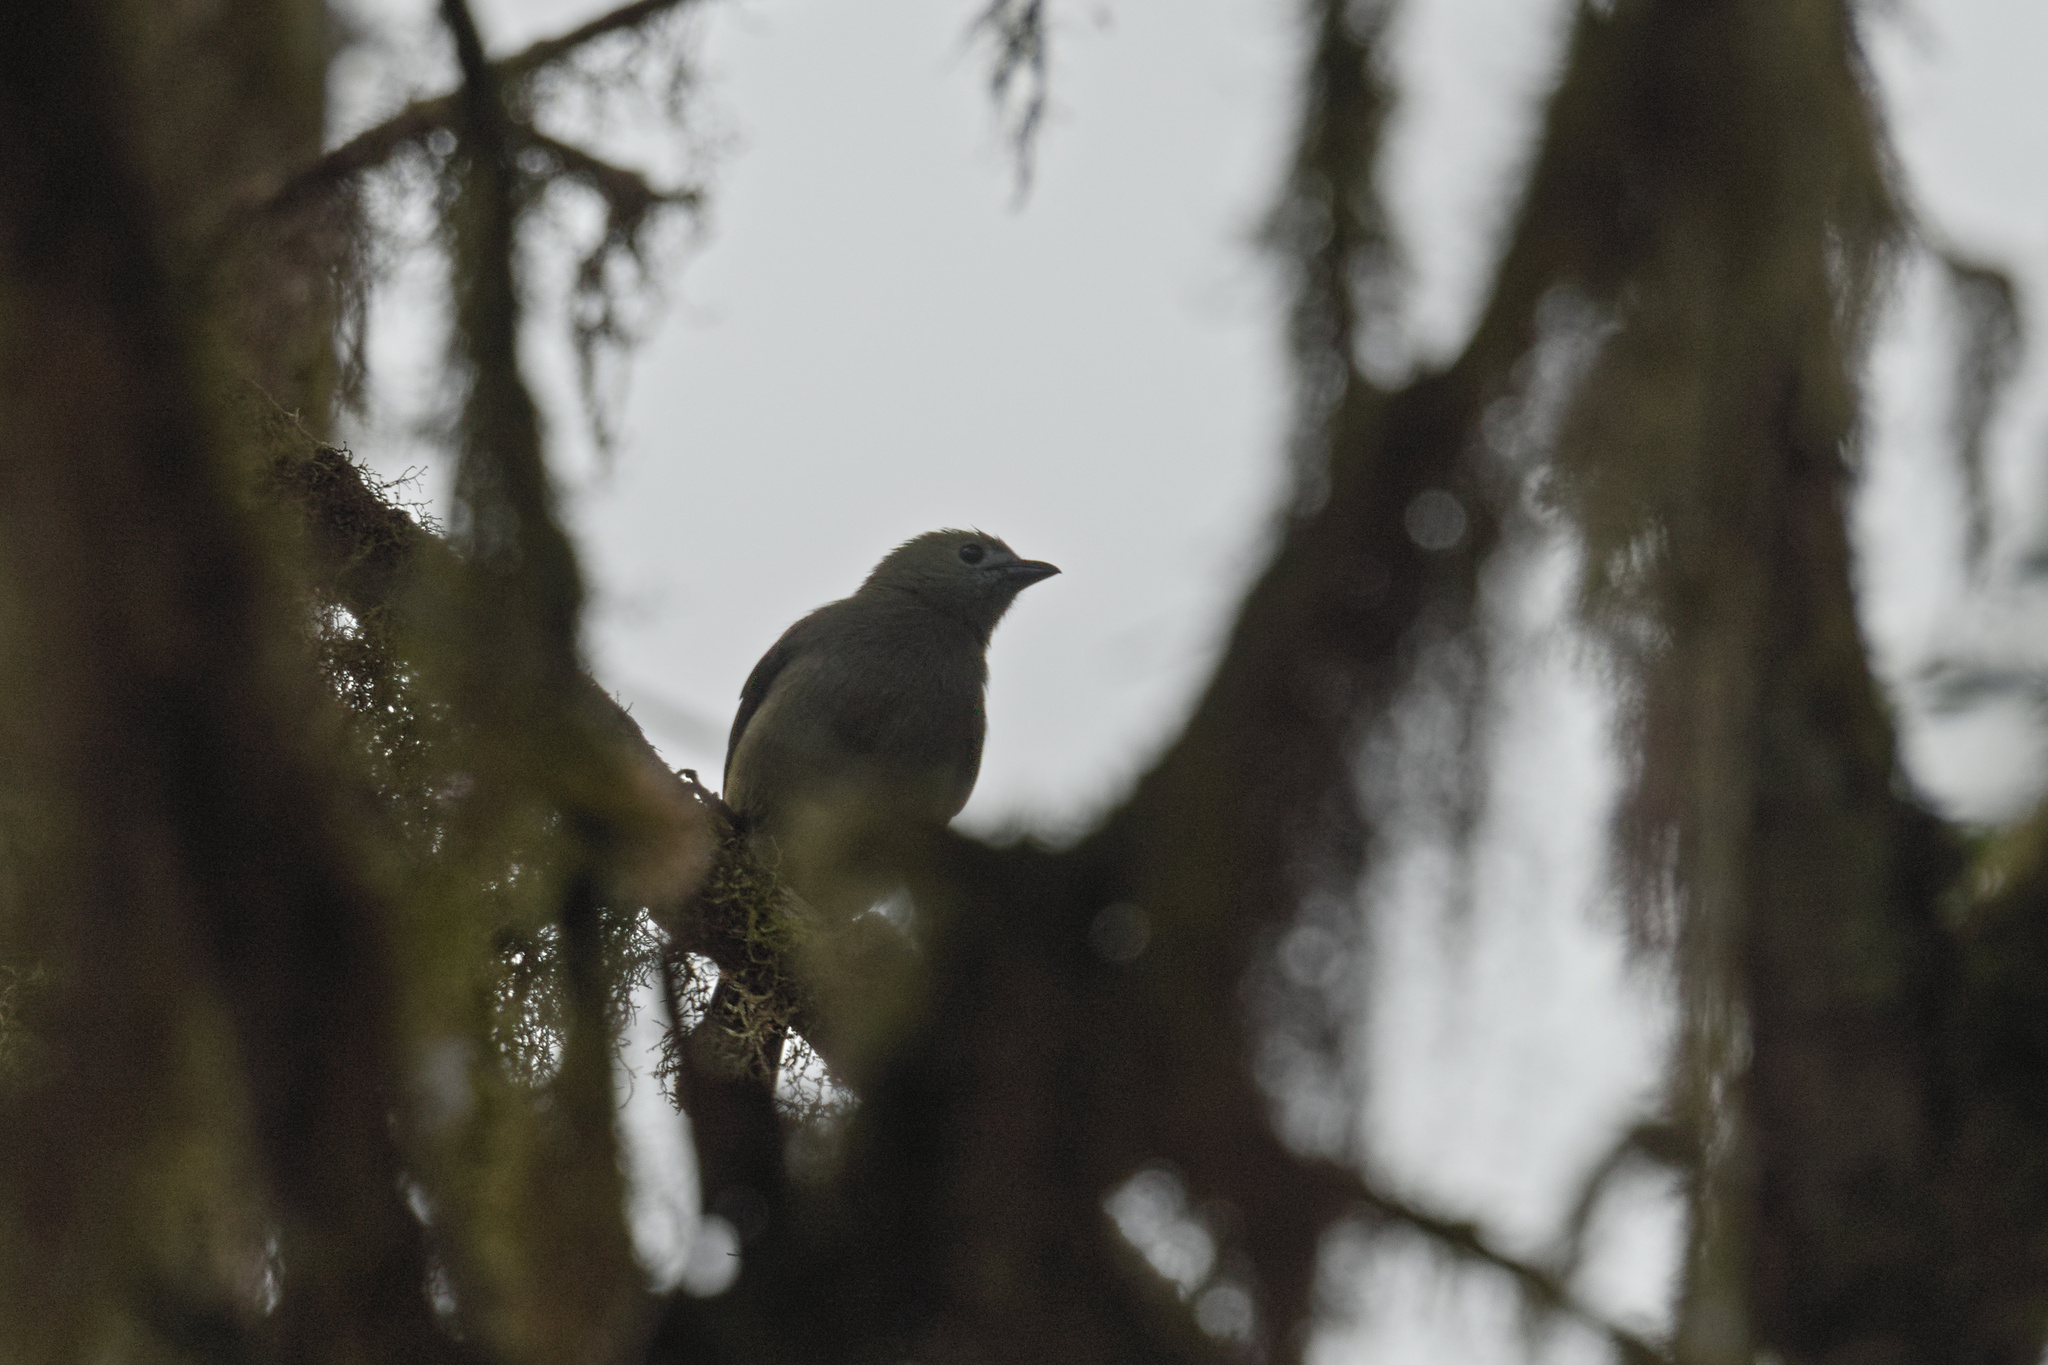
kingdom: Animalia
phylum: Chordata
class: Aves
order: Passeriformes
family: Thraupidae
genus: Thraupis
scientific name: Thraupis palmarum
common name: Palm tanager
